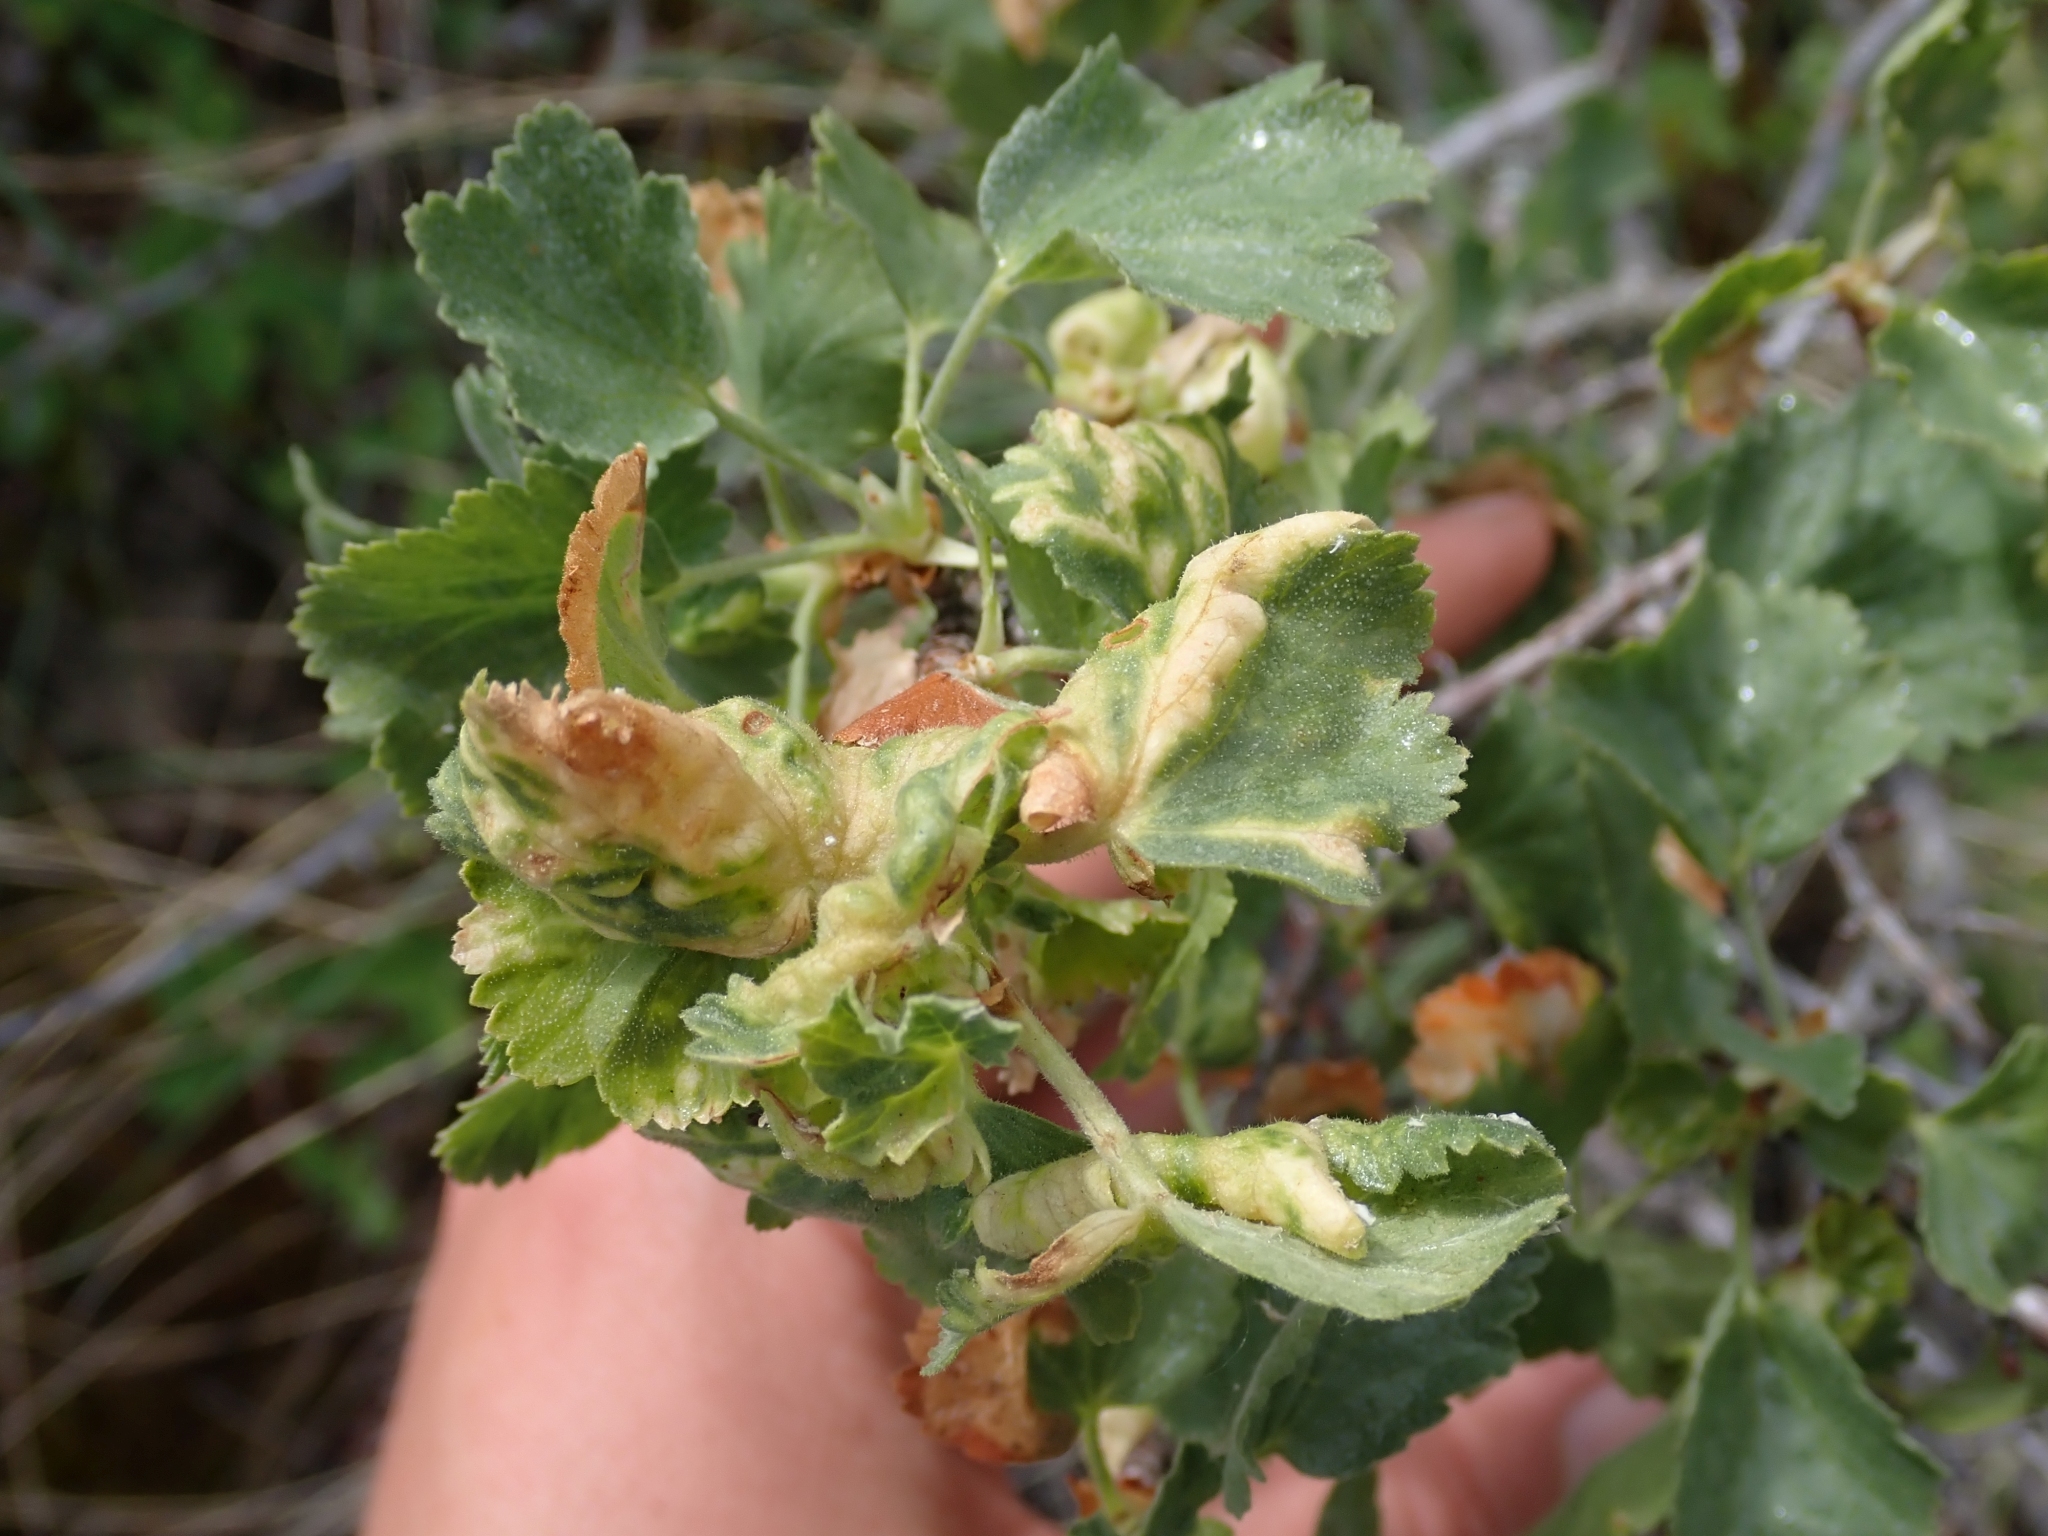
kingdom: Plantae
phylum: Tracheophyta
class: Magnoliopsida
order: Saxifragales
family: Grossulariaceae
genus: Ribes
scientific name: Ribes cereum
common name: Wax currant
